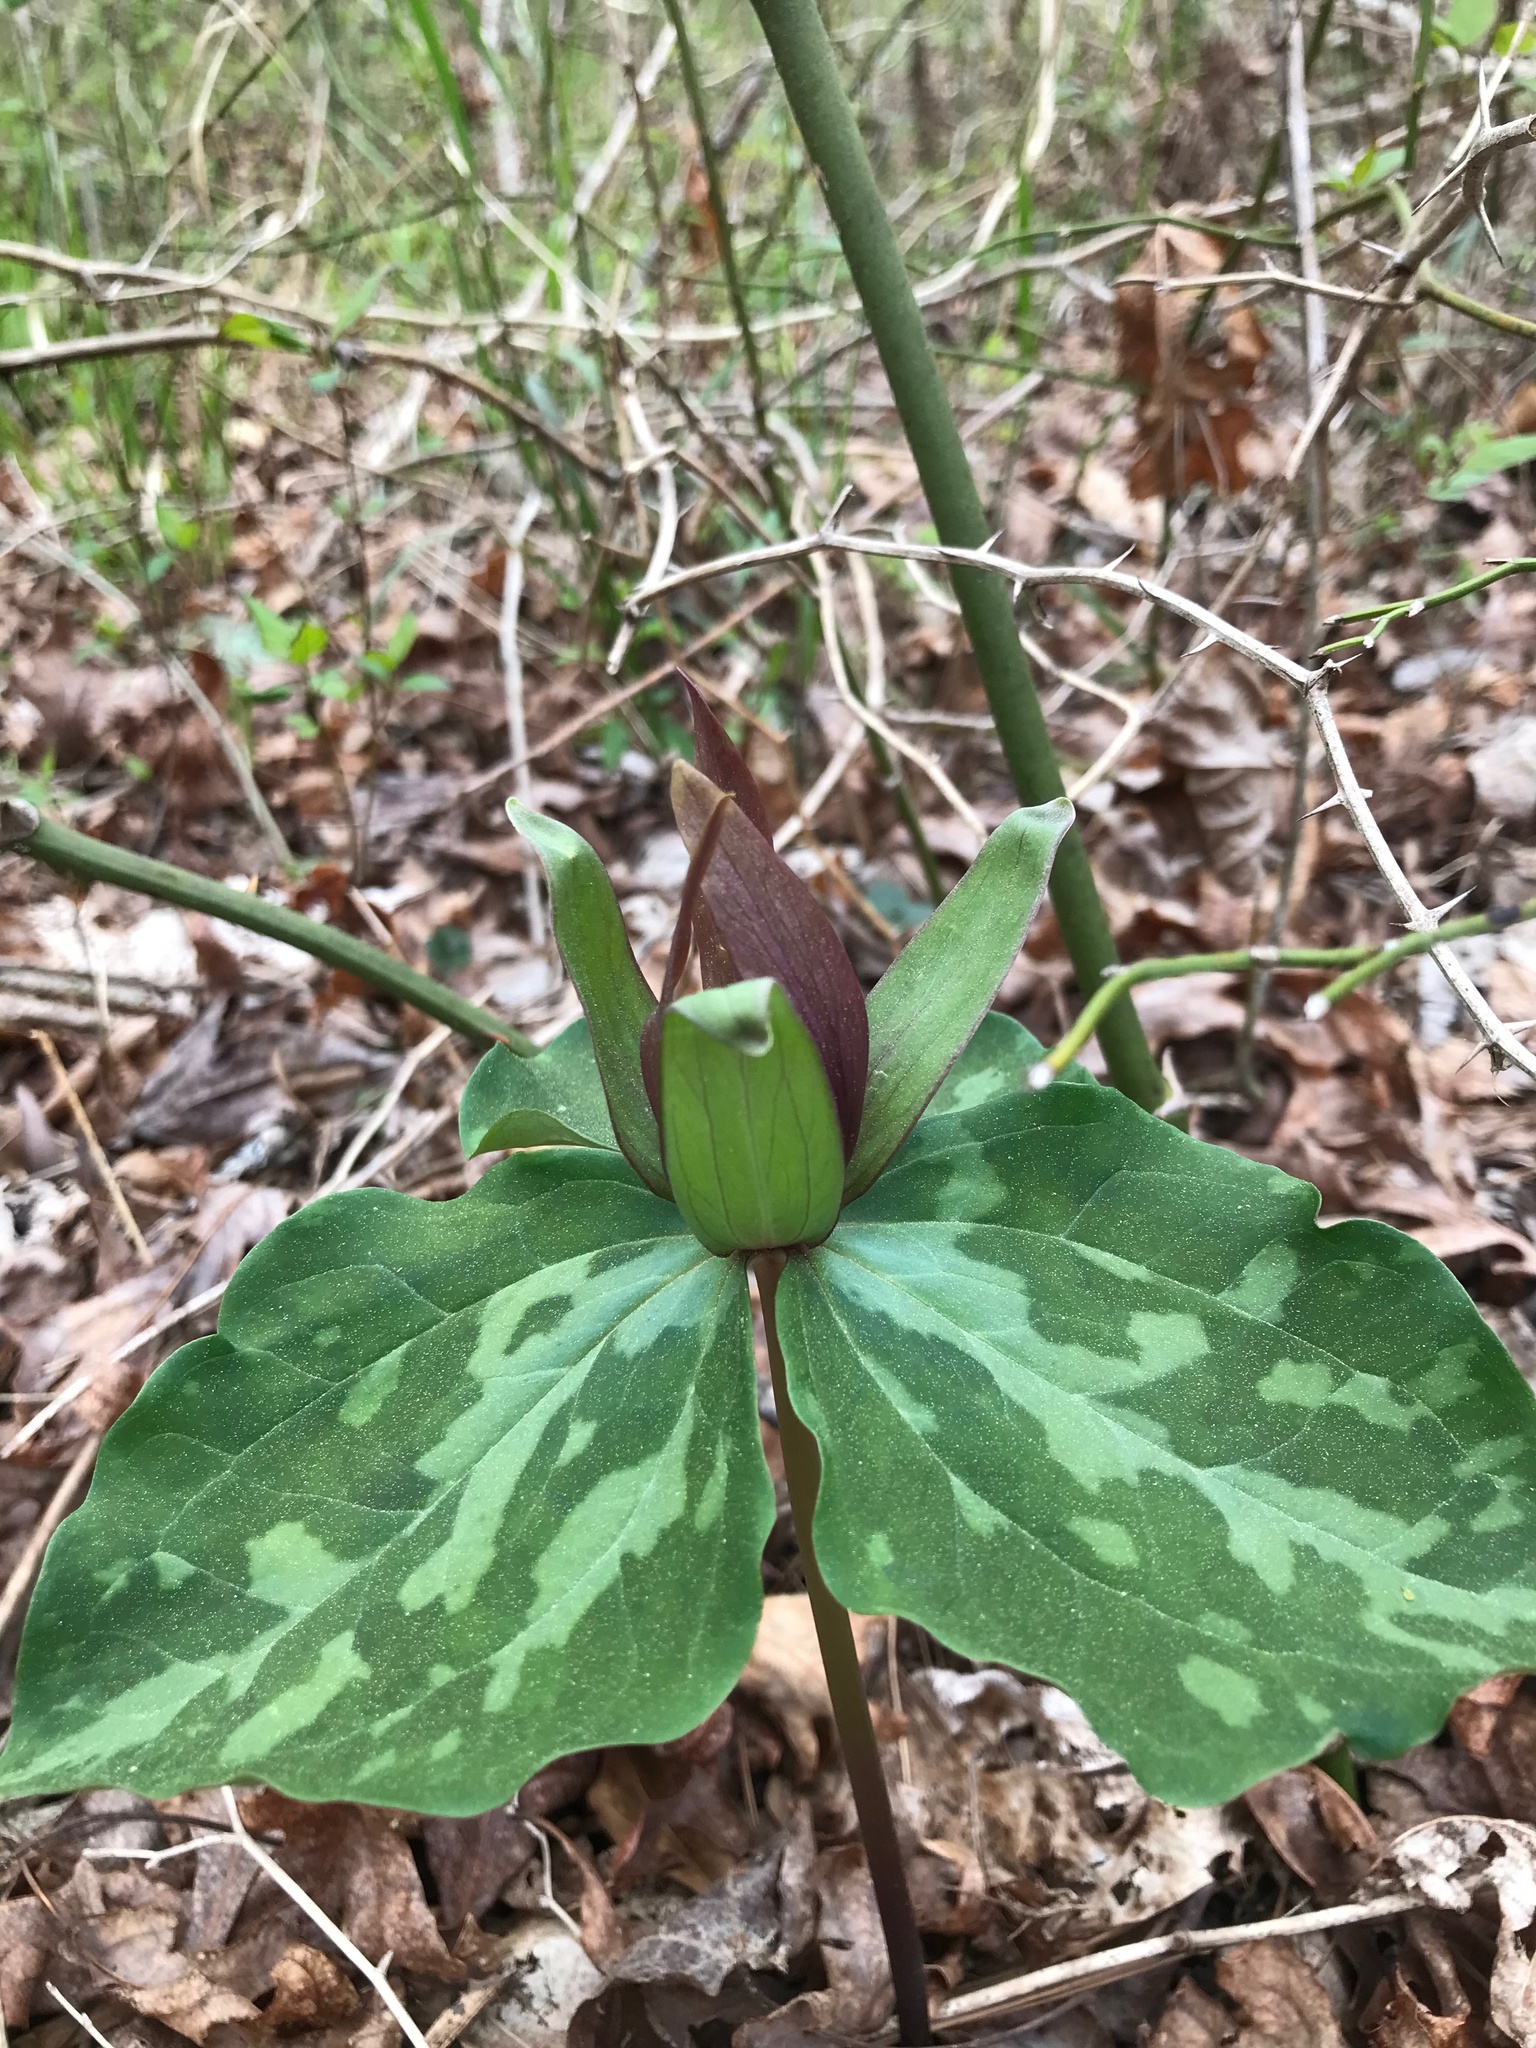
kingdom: Plantae
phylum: Tracheophyta
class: Liliopsida
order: Liliales
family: Melanthiaceae
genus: Trillium
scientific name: Trillium cuneatum
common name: Cuneate trillium
